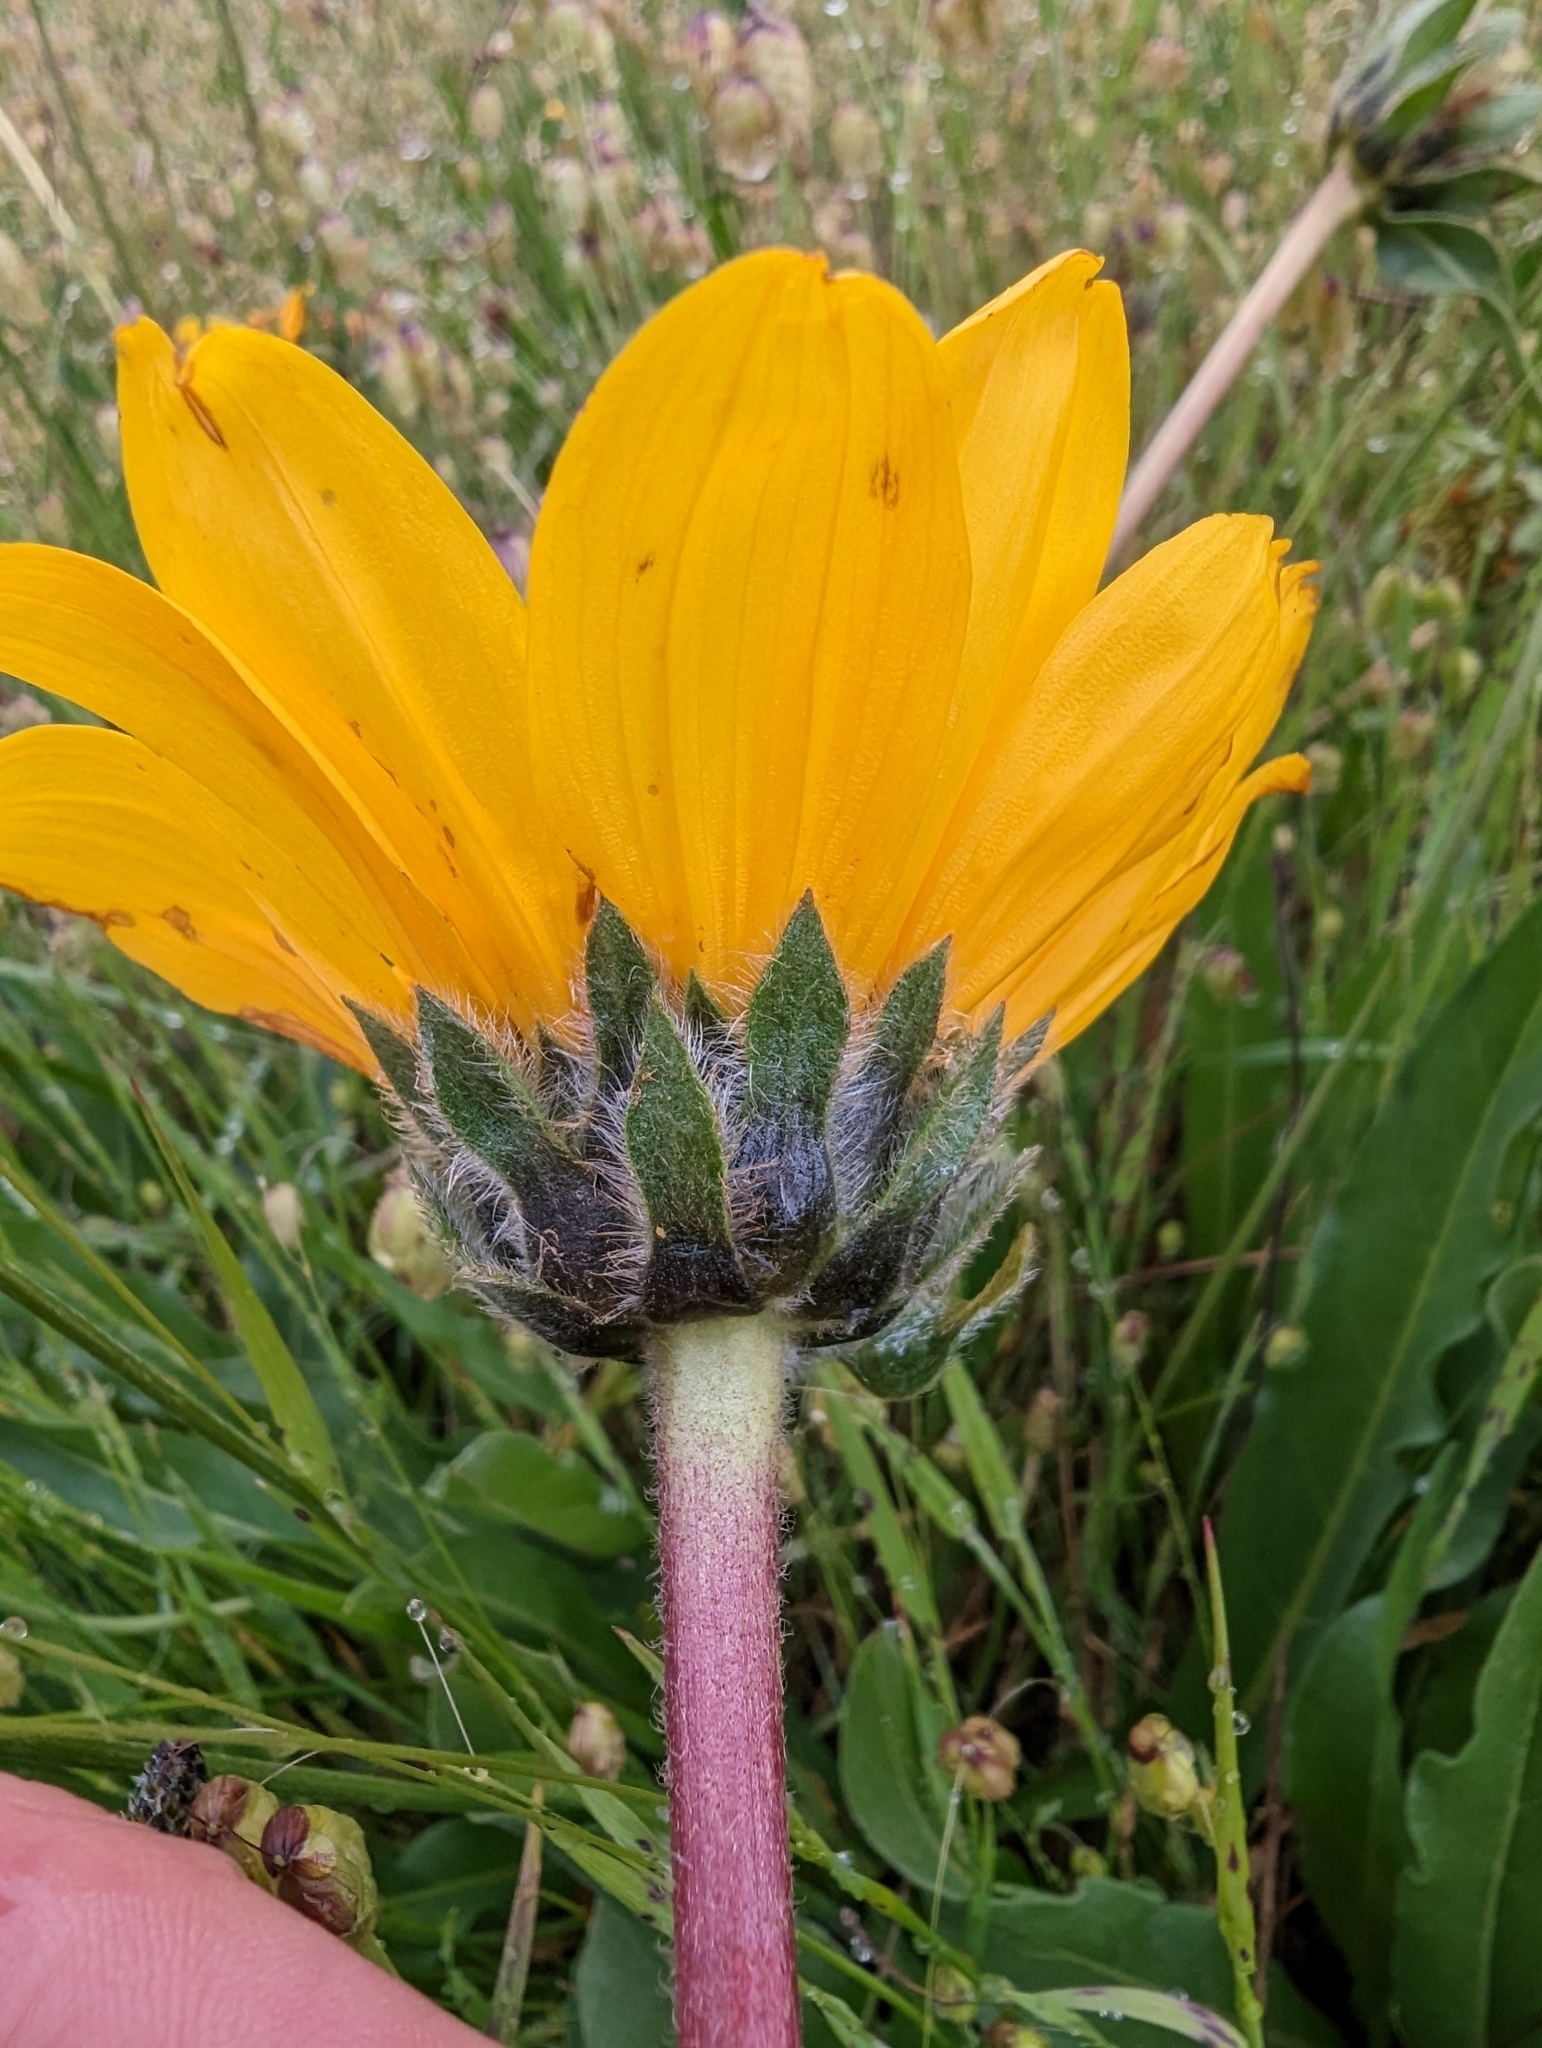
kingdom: Plantae
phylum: Tracheophyta
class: Magnoliopsida
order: Asterales
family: Asteraceae
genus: Wyethia
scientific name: Wyethia angustifolia
